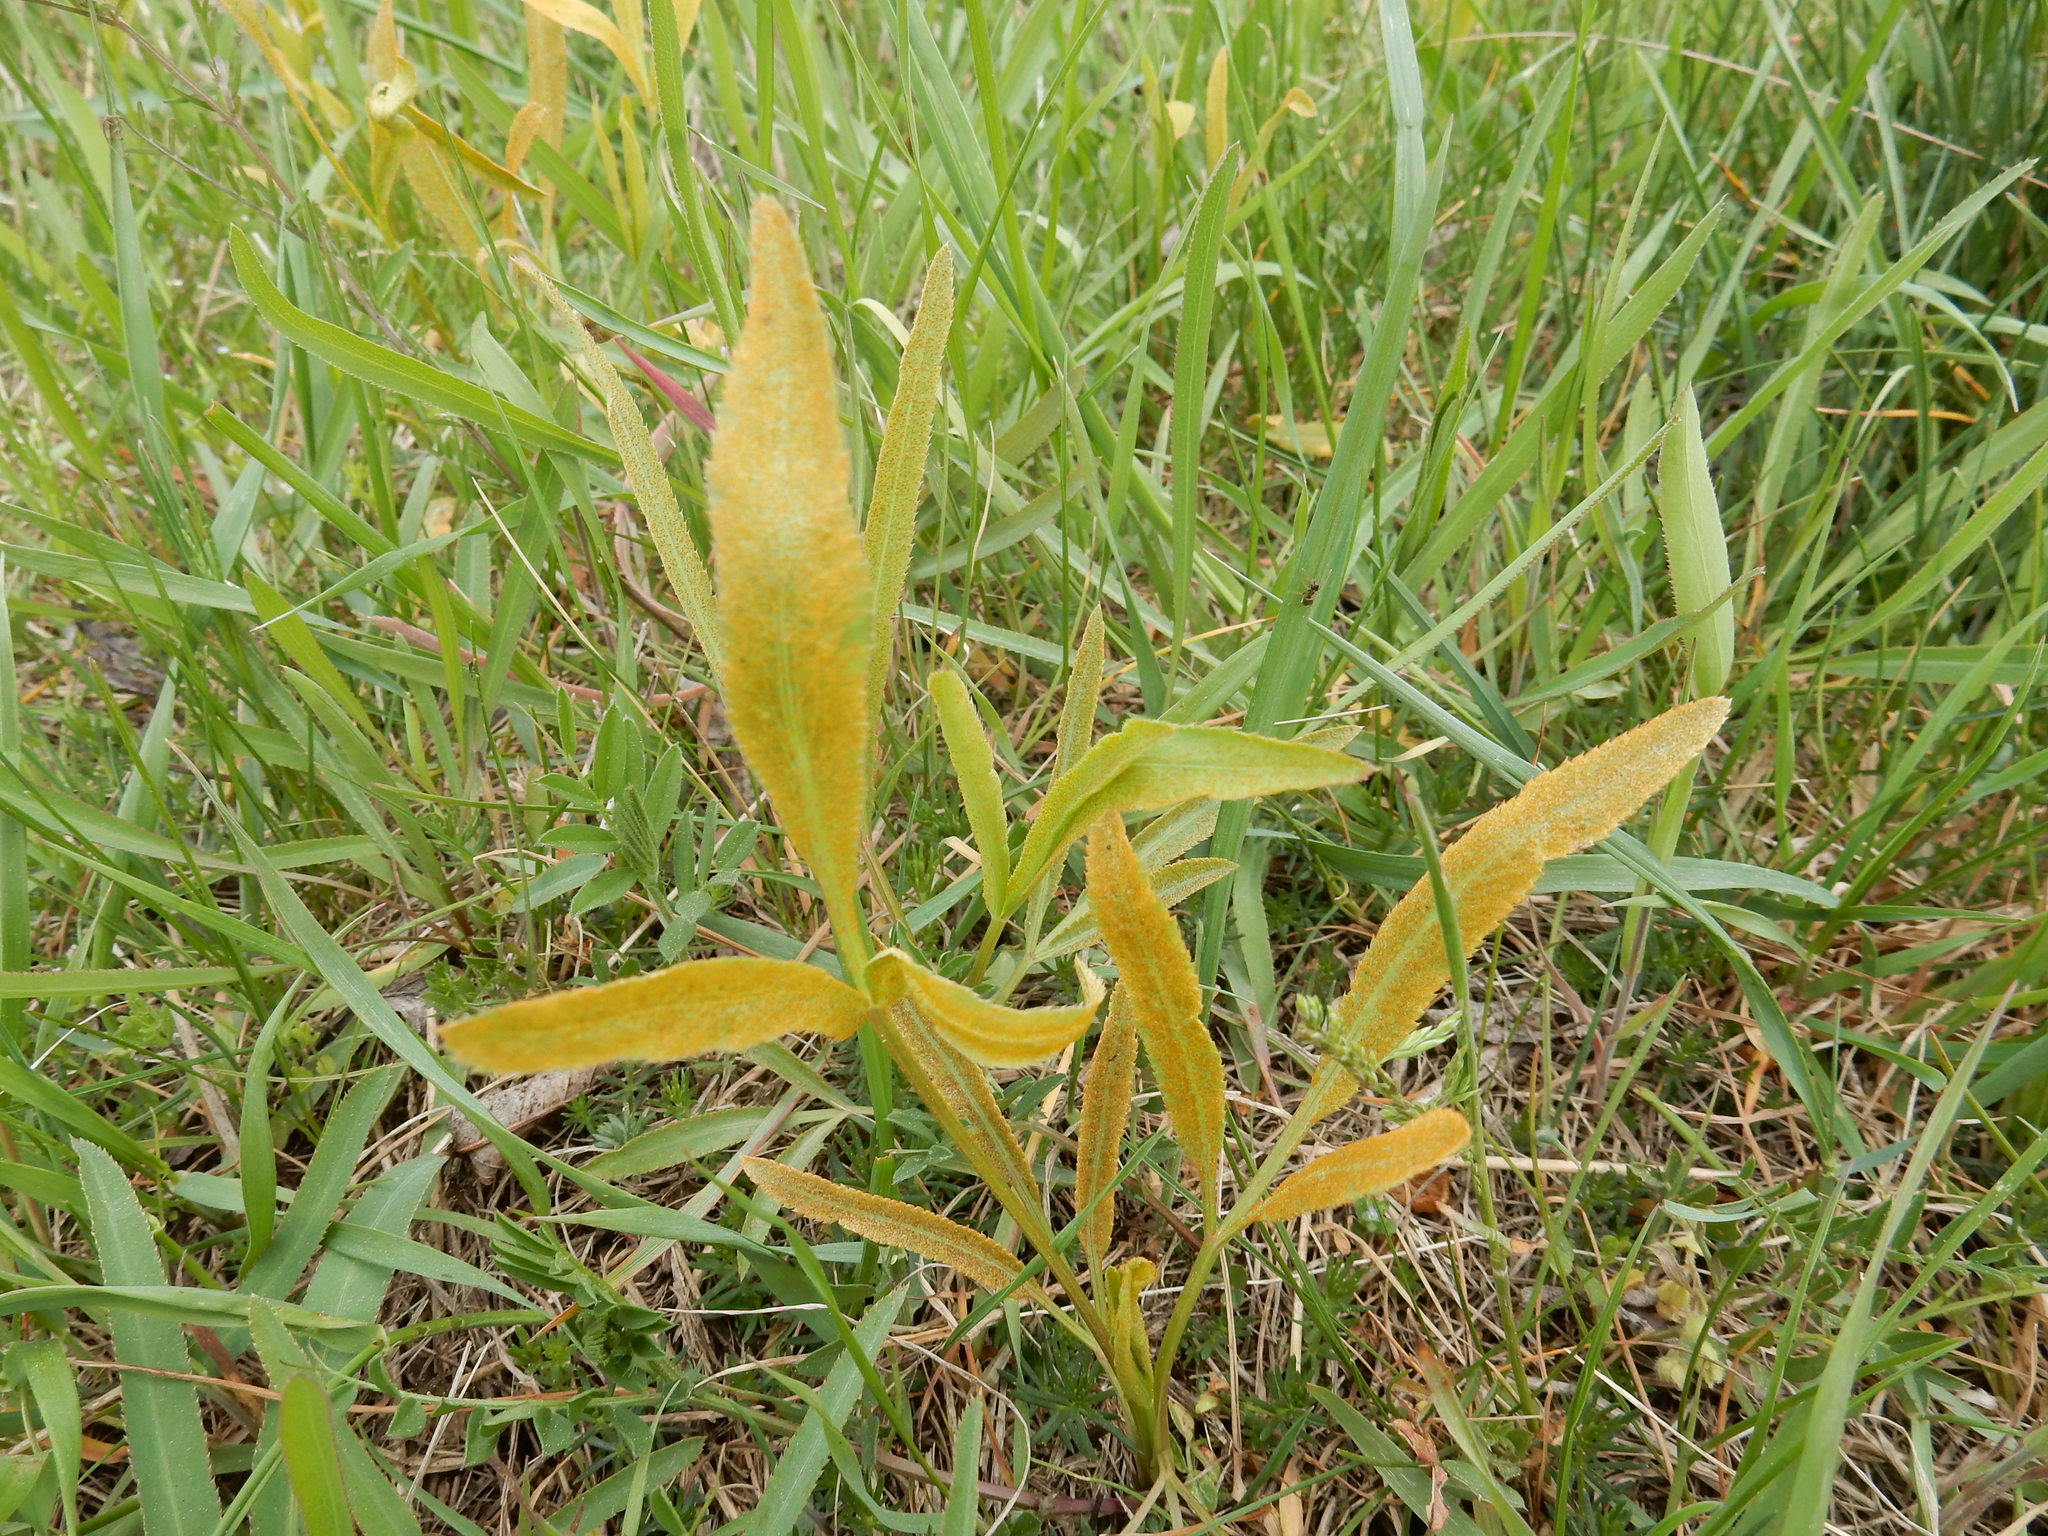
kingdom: Plantae
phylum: Tracheophyta
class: Magnoliopsida
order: Apiales
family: Apiaceae
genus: Falcaria
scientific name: Falcaria vulgaris
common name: Longleaf
